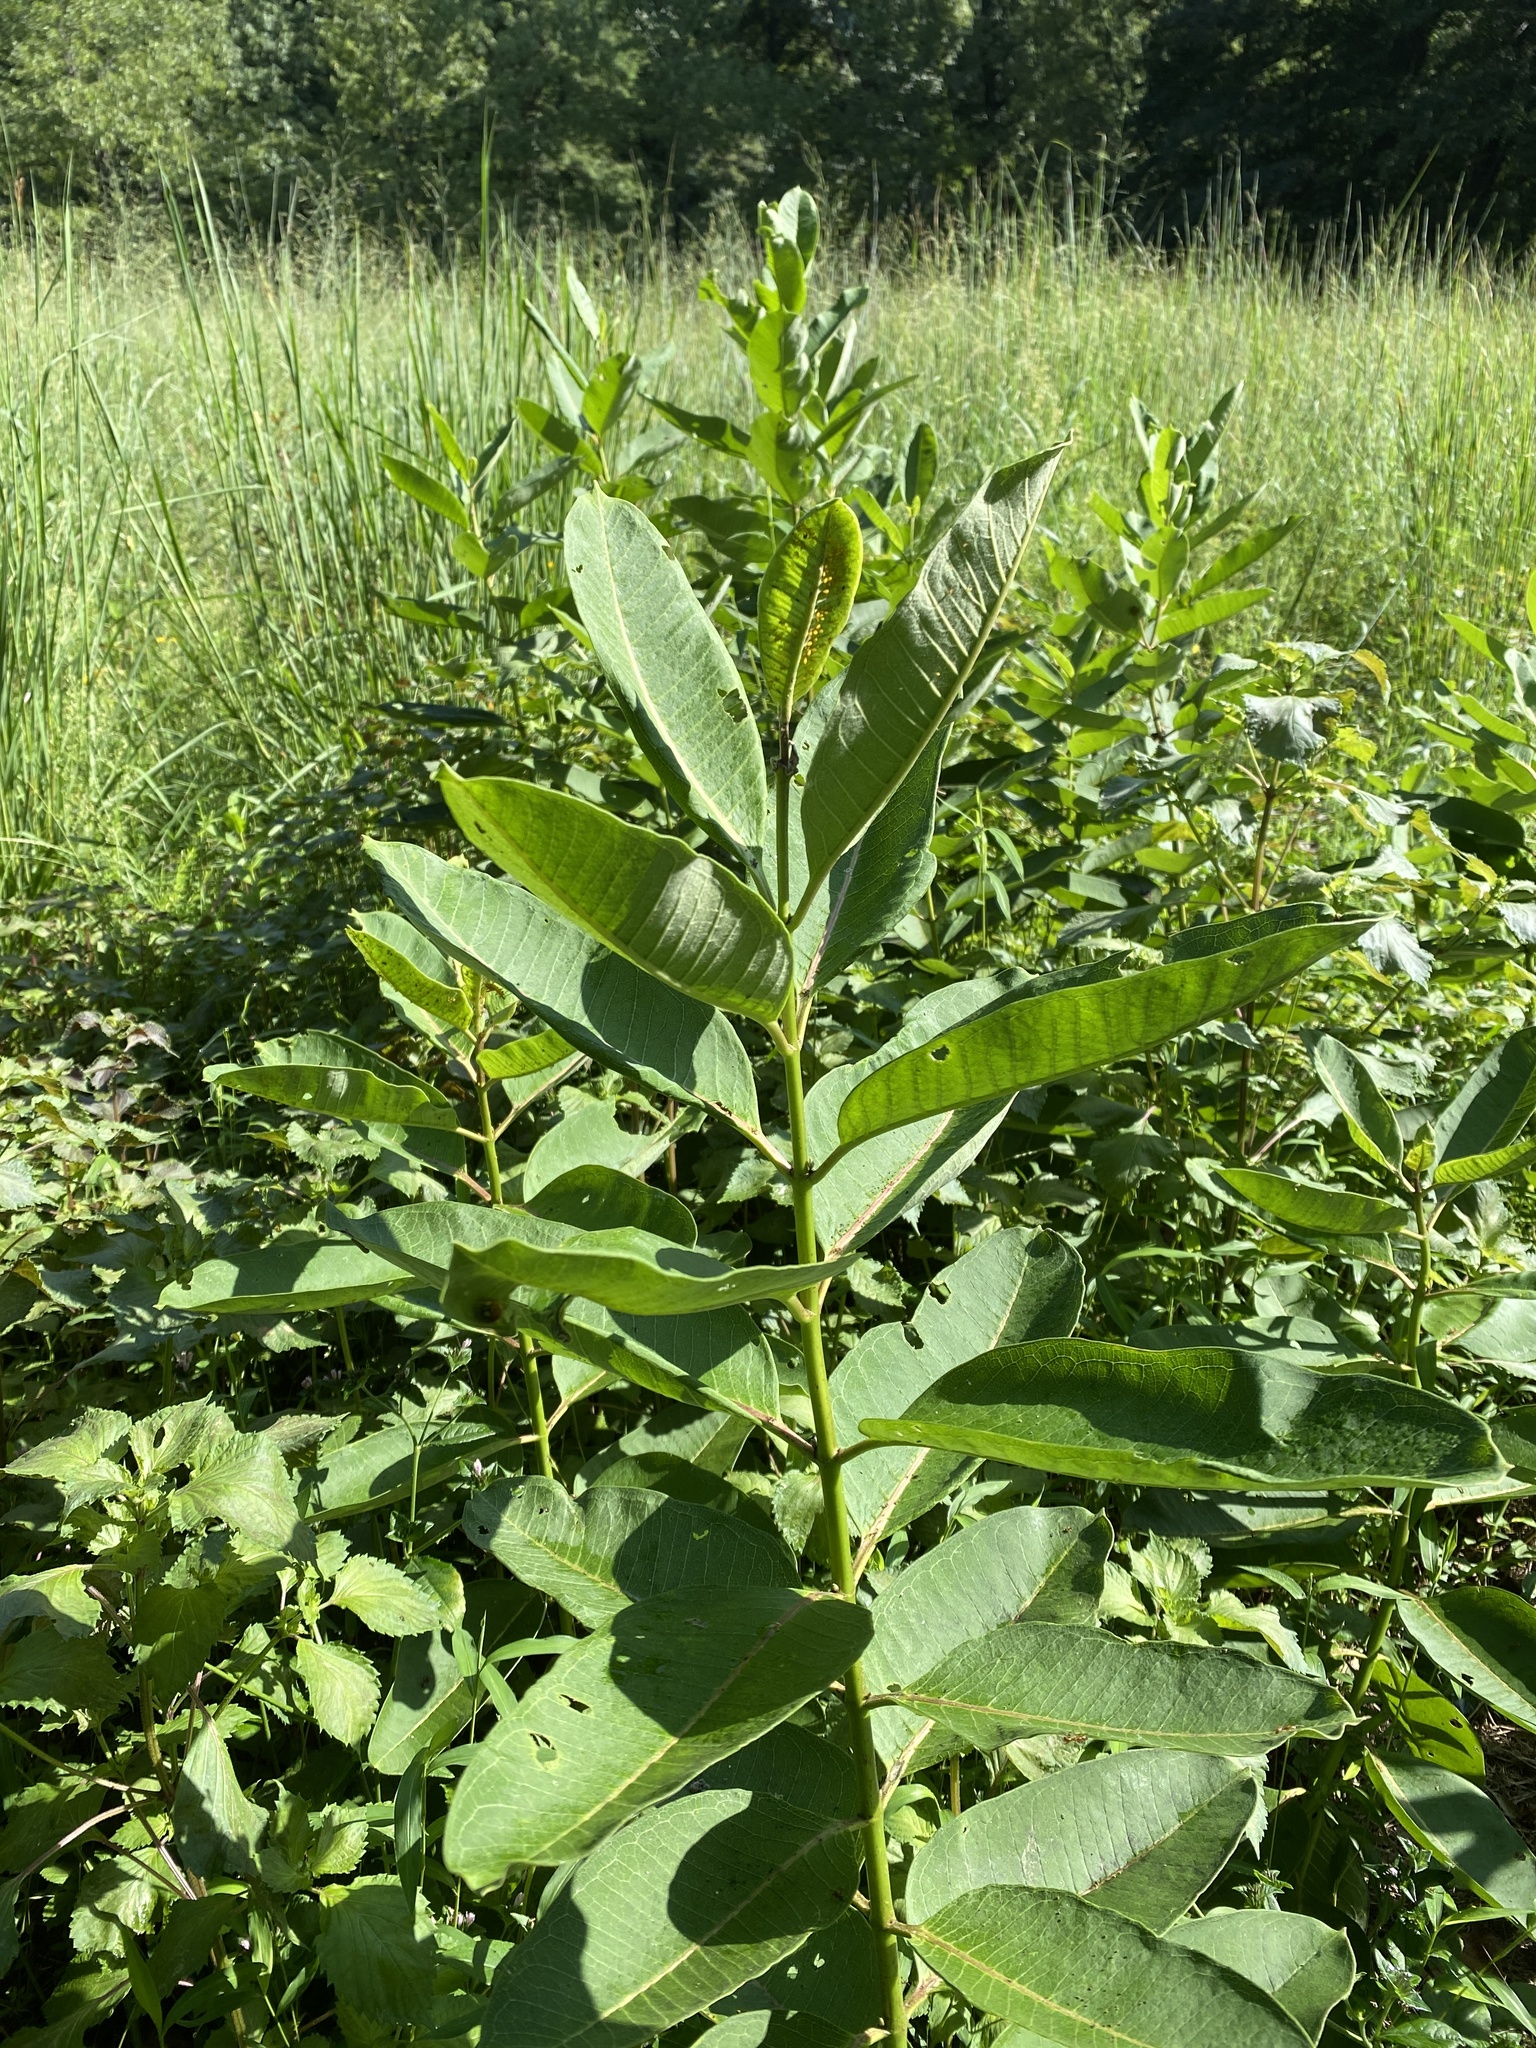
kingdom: Plantae
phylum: Tracheophyta
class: Magnoliopsida
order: Gentianales
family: Apocynaceae
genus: Asclepias
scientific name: Asclepias syriaca
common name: Common milkweed
